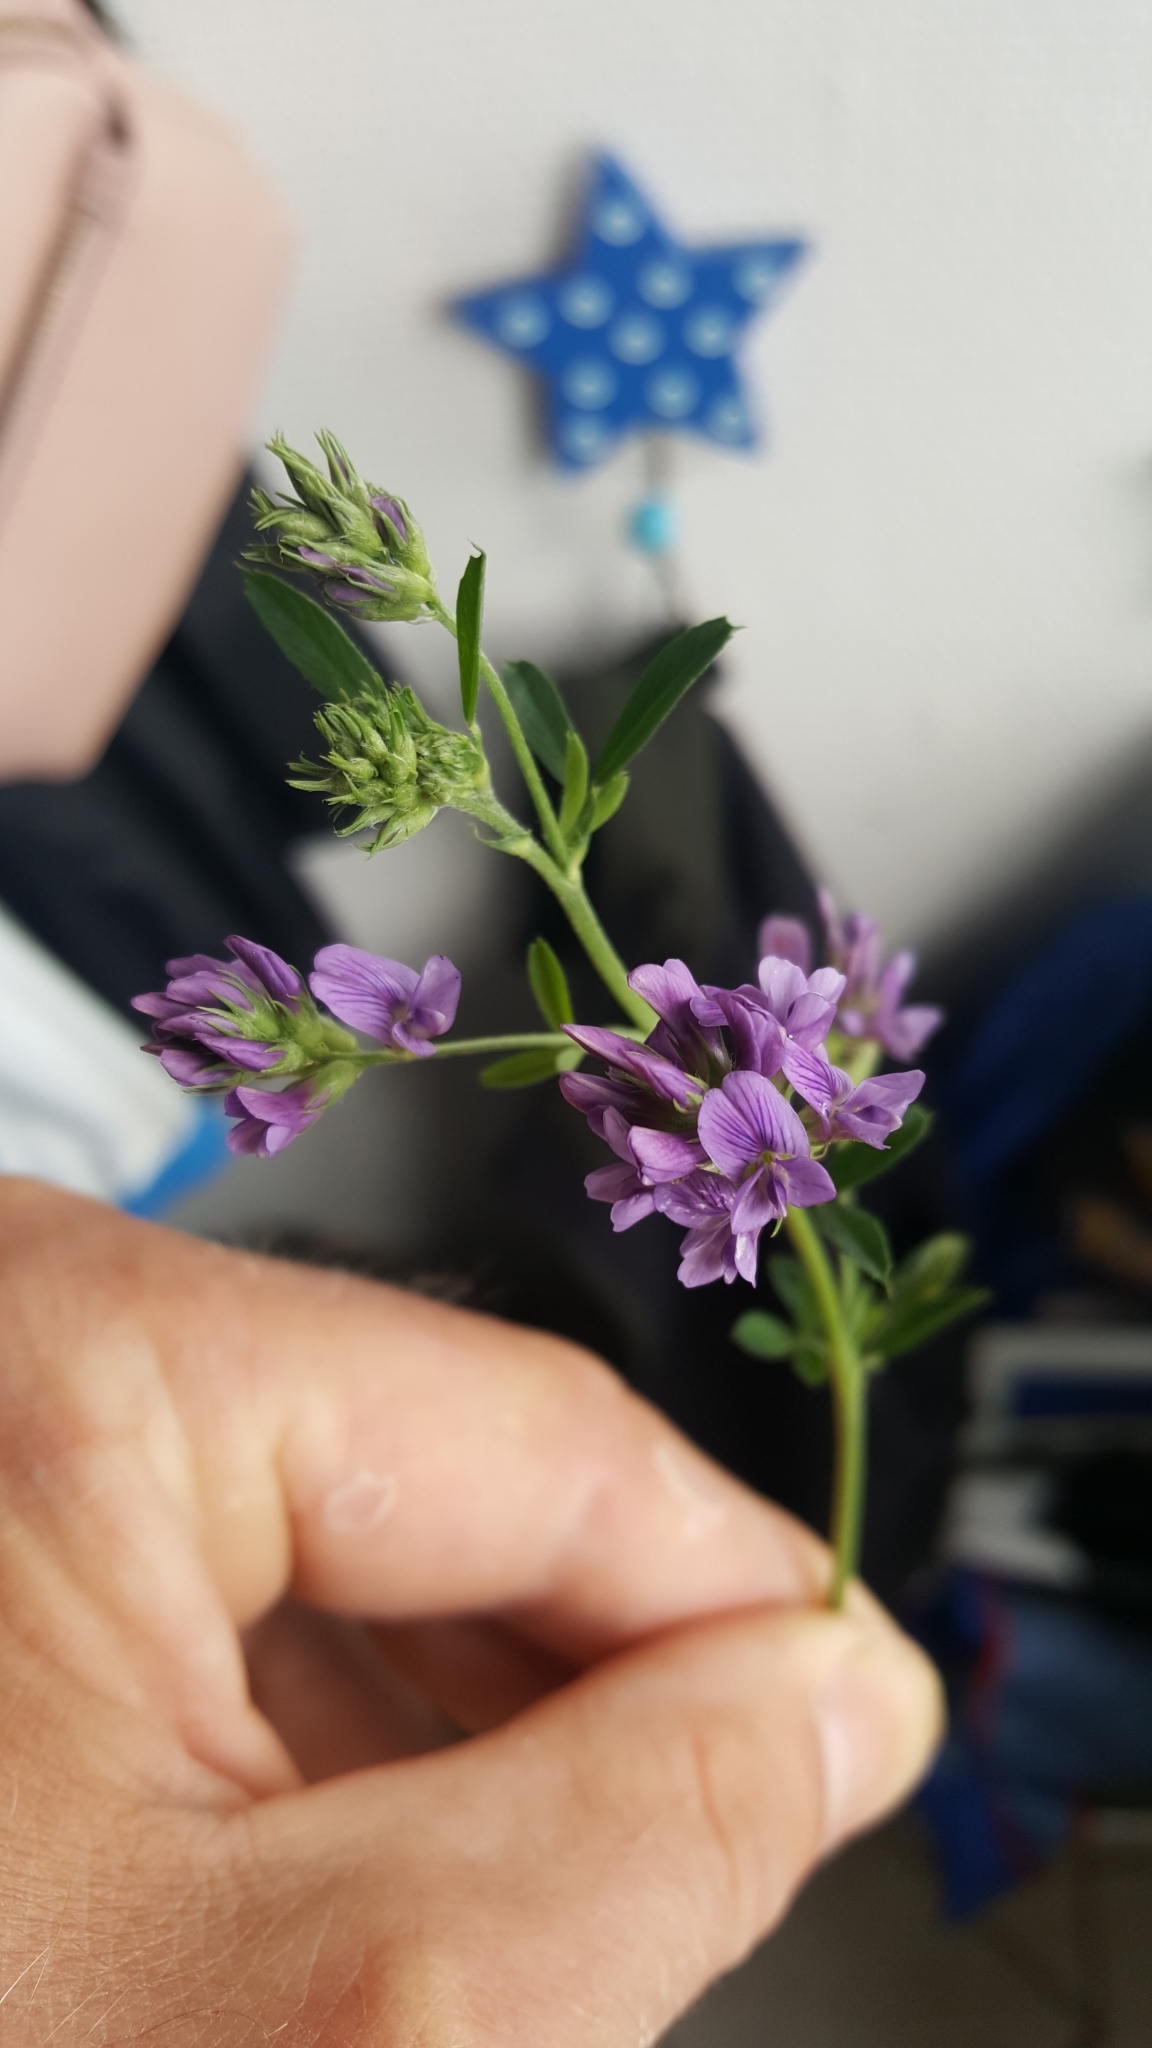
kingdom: Plantae
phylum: Tracheophyta
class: Magnoliopsida
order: Fabales
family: Fabaceae
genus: Medicago
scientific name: Medicago sativa
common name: Alfalfa
